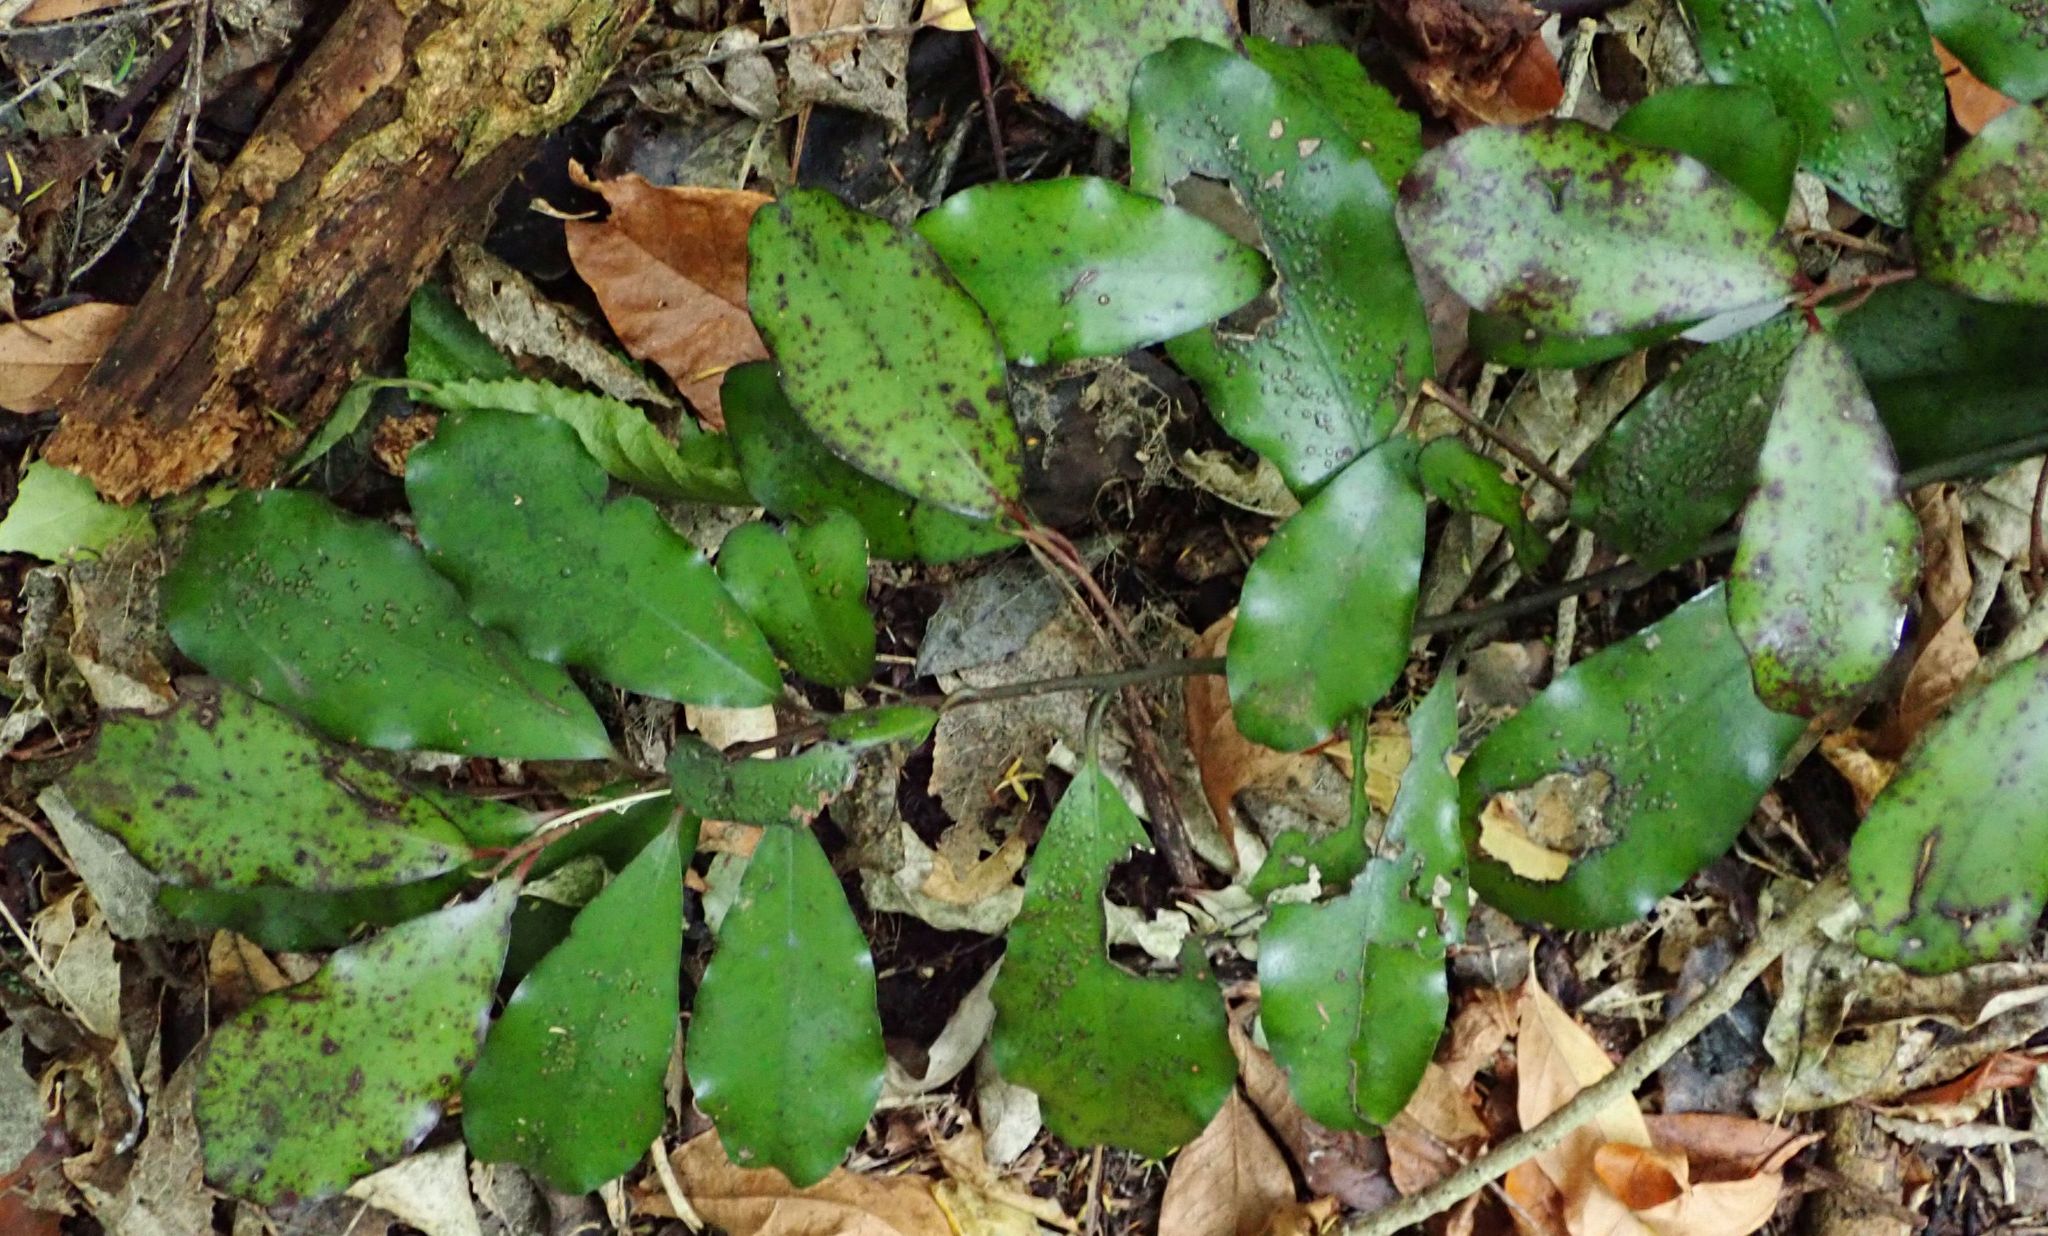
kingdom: Plantae
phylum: Tracheophyta
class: Magnoliopsida
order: Canellales
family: Winteraceae
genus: Pseudowintera
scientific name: Pseudowintera colorata
